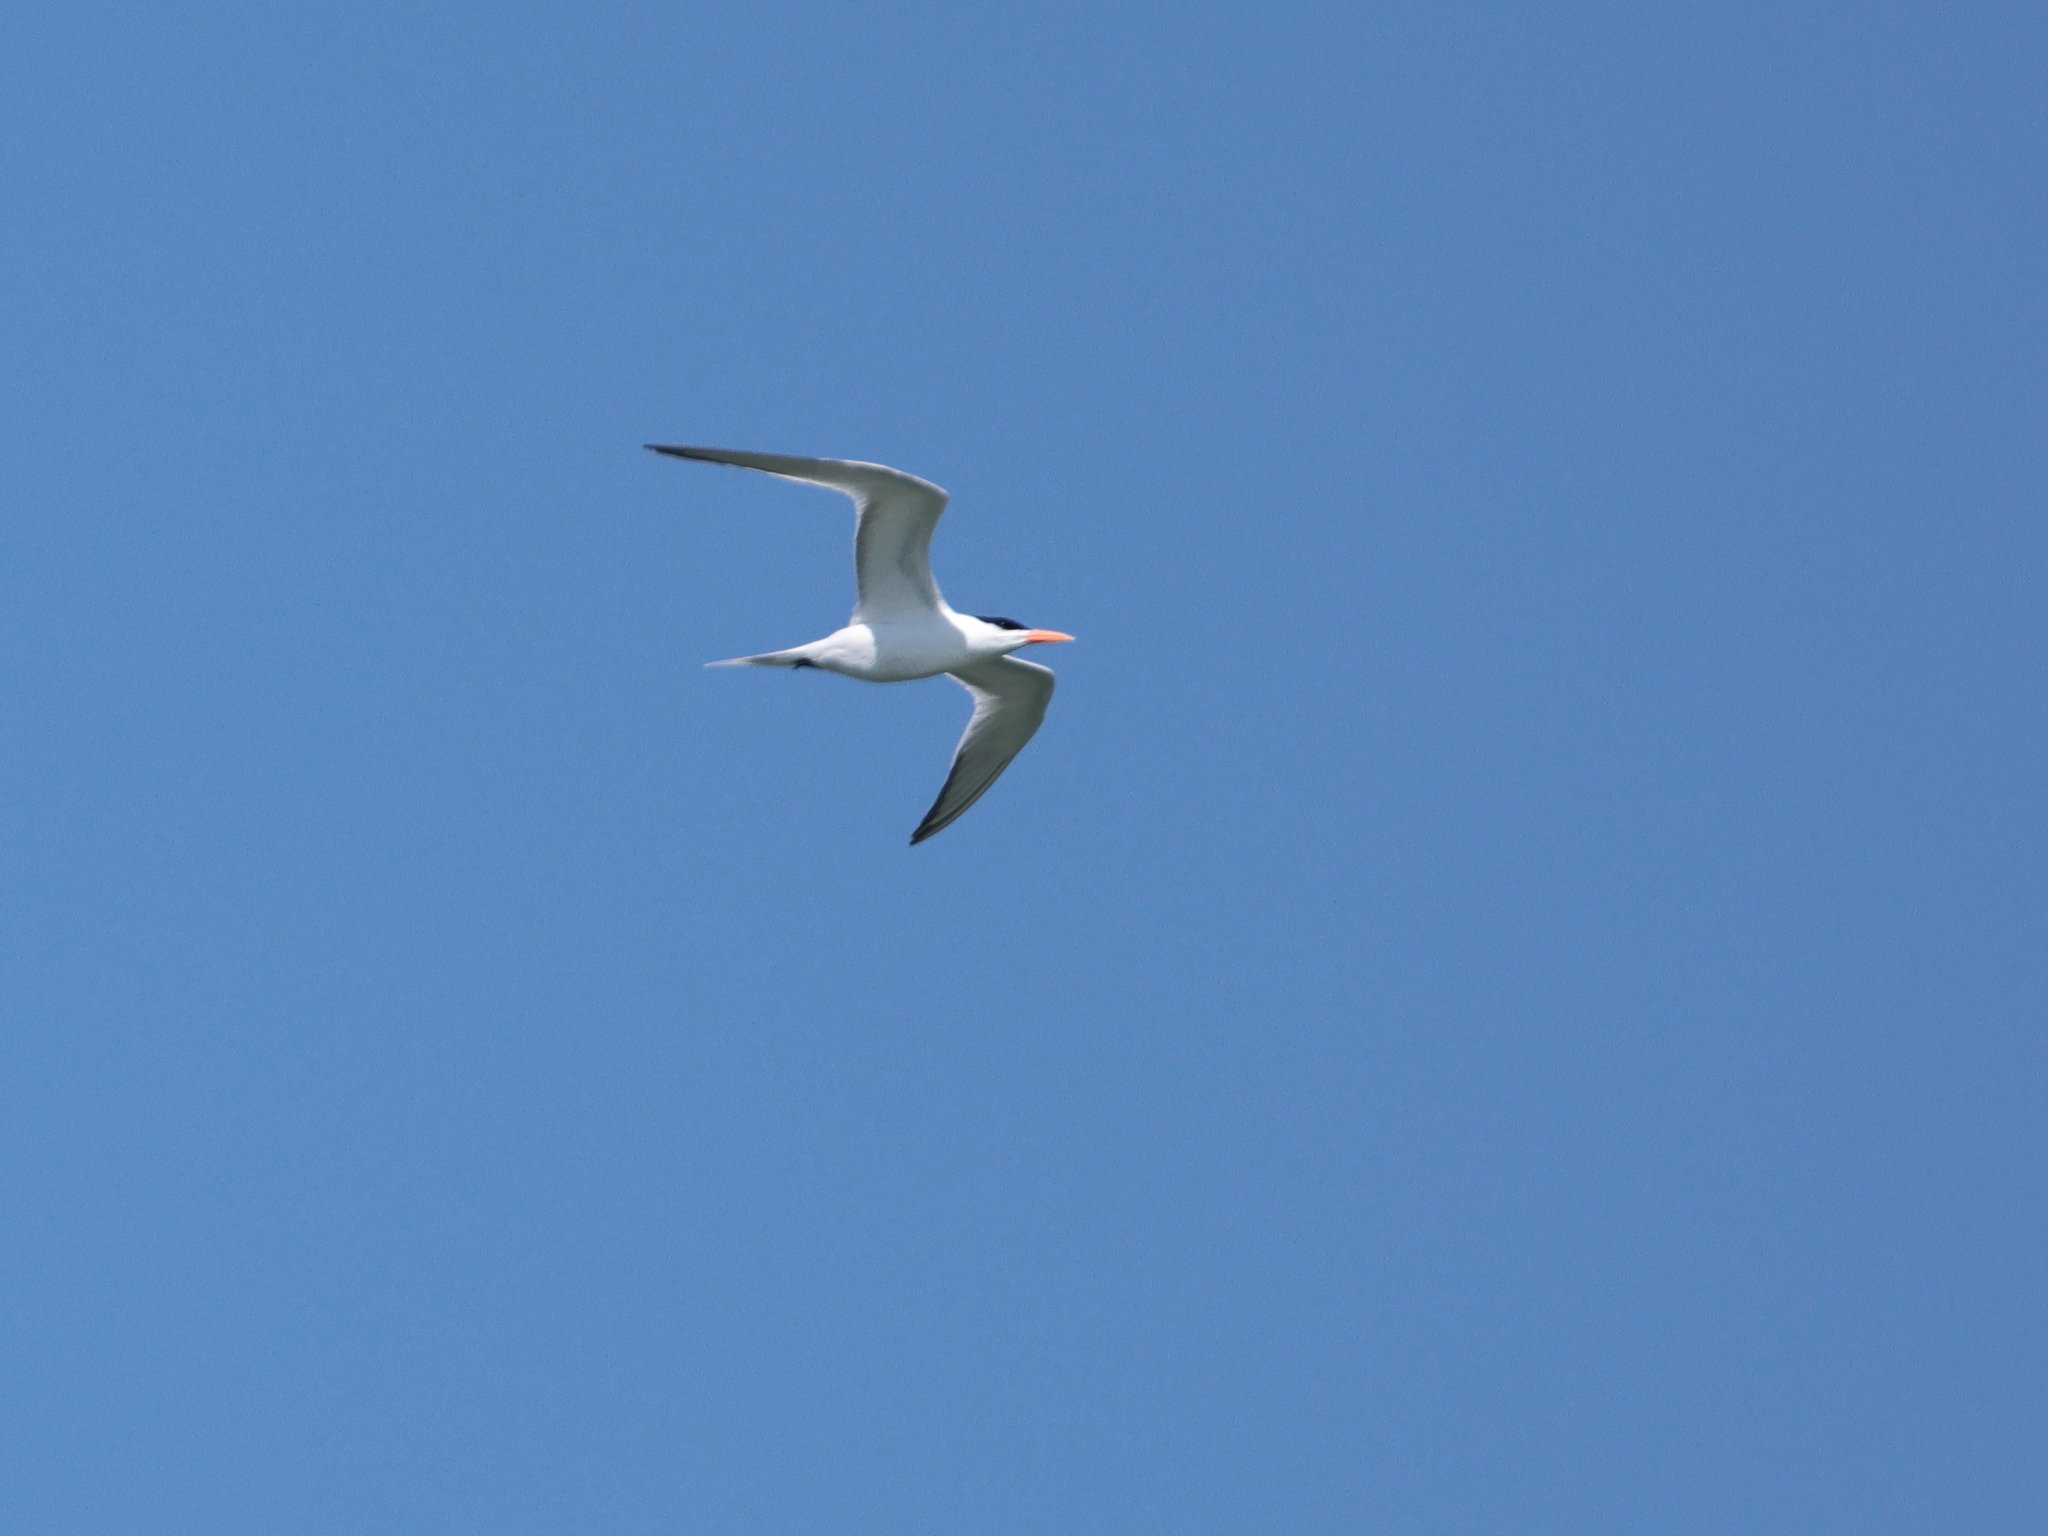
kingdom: Animalia
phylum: Chordata
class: Aves
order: Charadriiformes
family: Laridae
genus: Thalasseus
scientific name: Thalasseus maximus
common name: Royal tern
